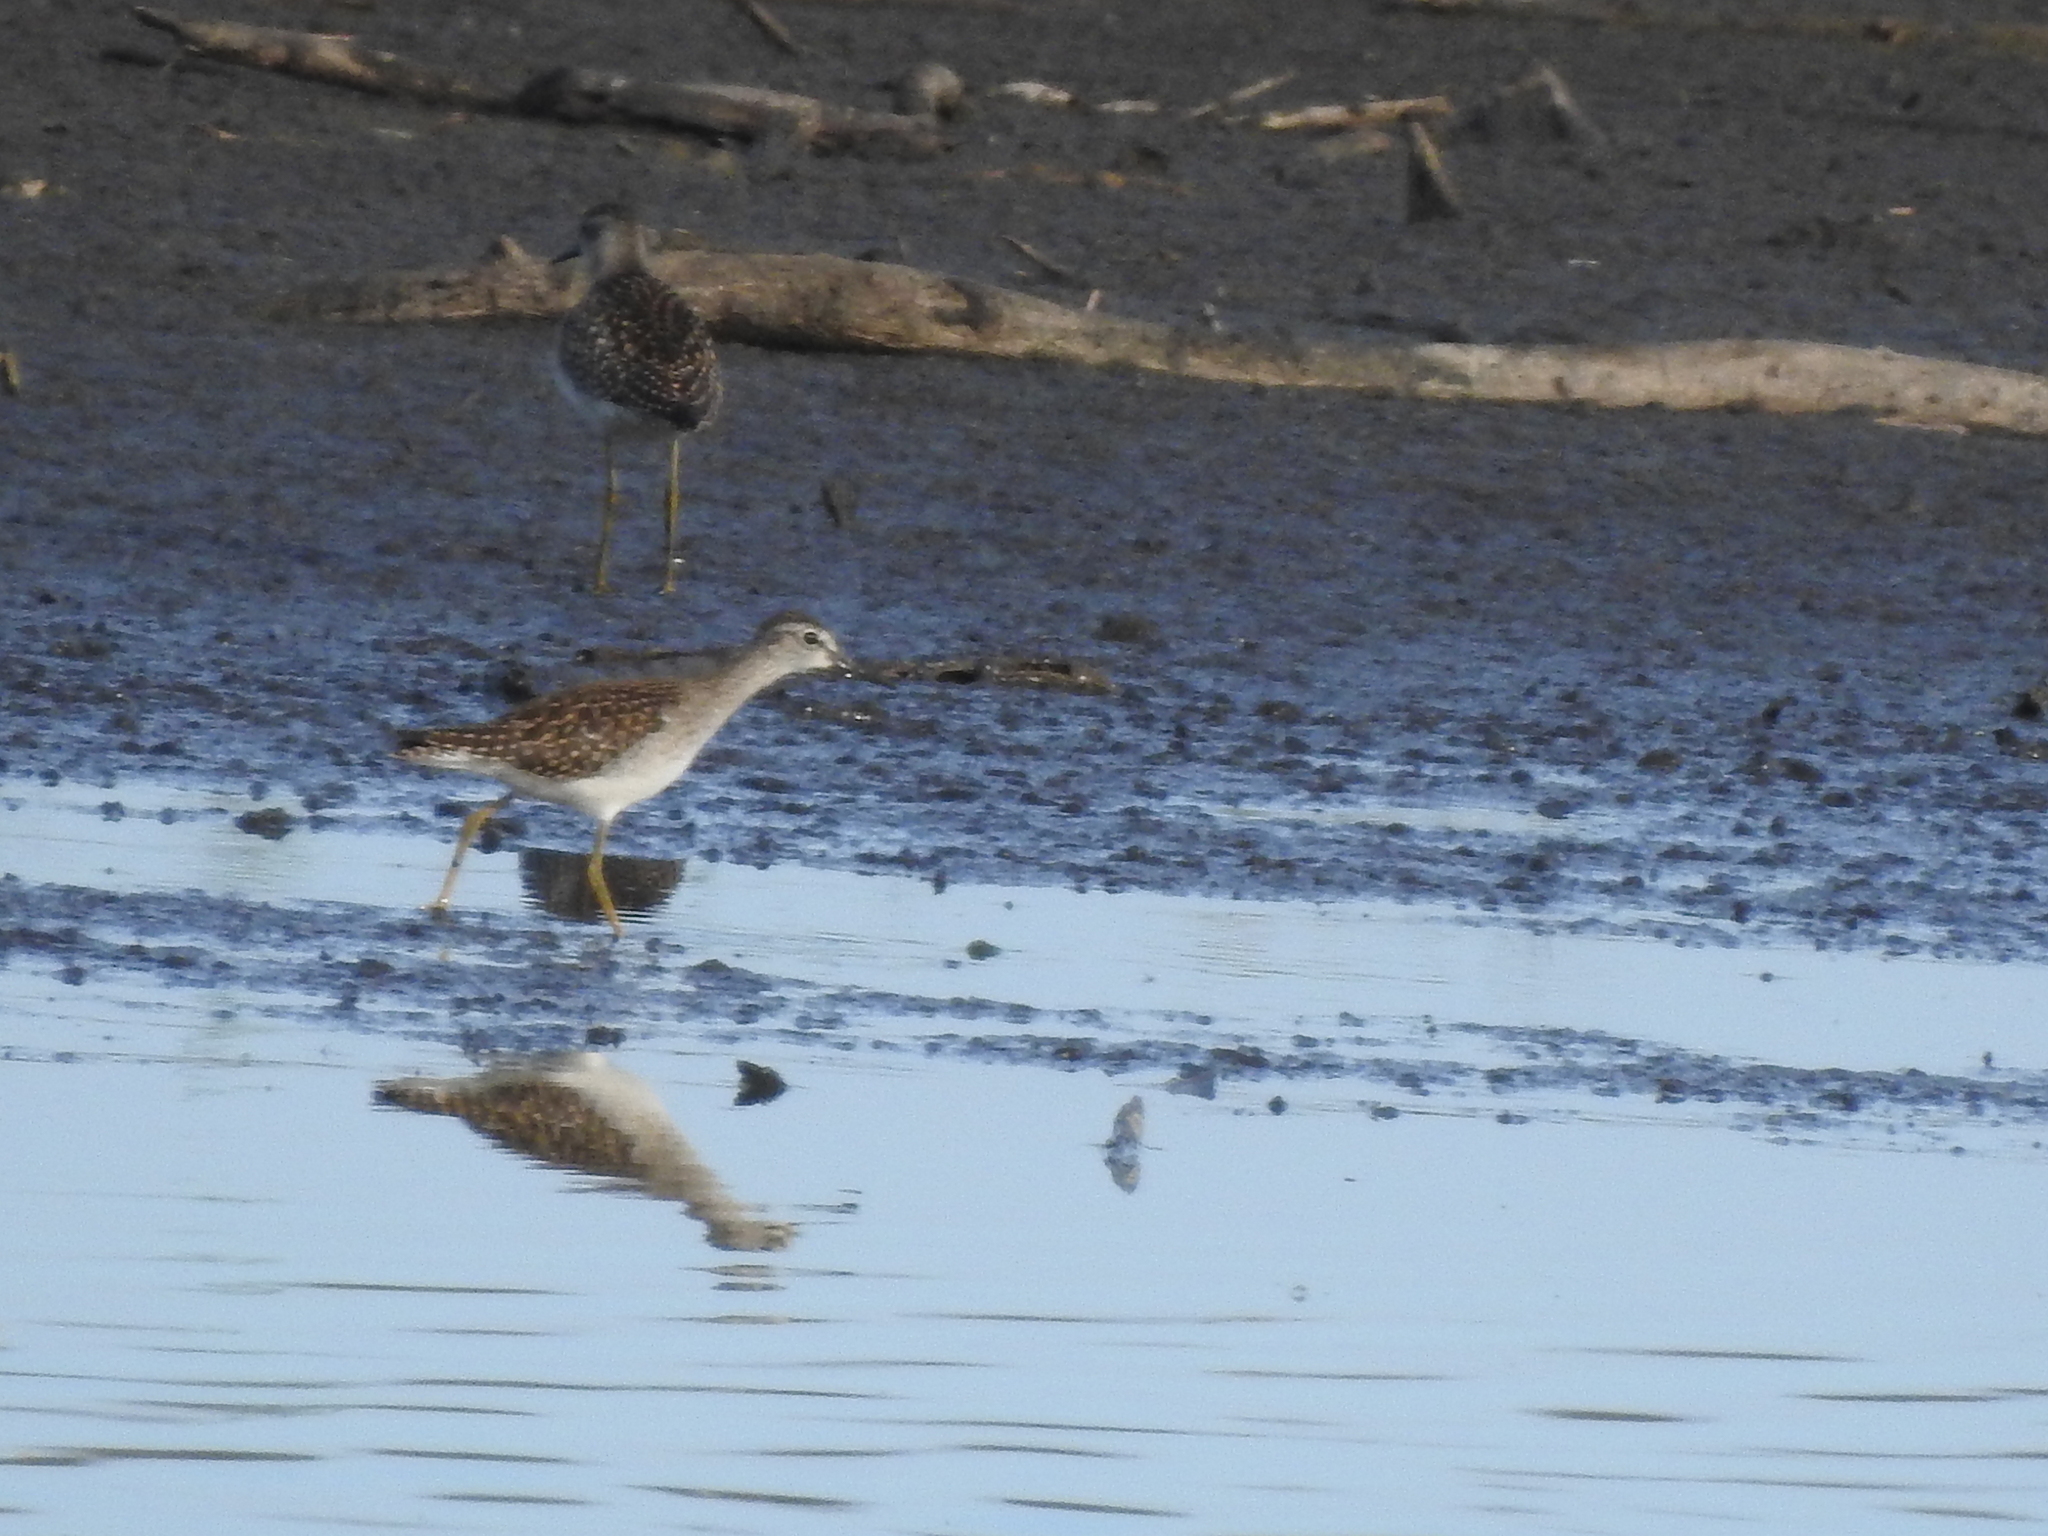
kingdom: Animalia
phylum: Chordata
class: Aves
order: Charadriiformes
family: Scolopacidae
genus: Tringa
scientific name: Tringa glareola
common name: Wood sandpiper
